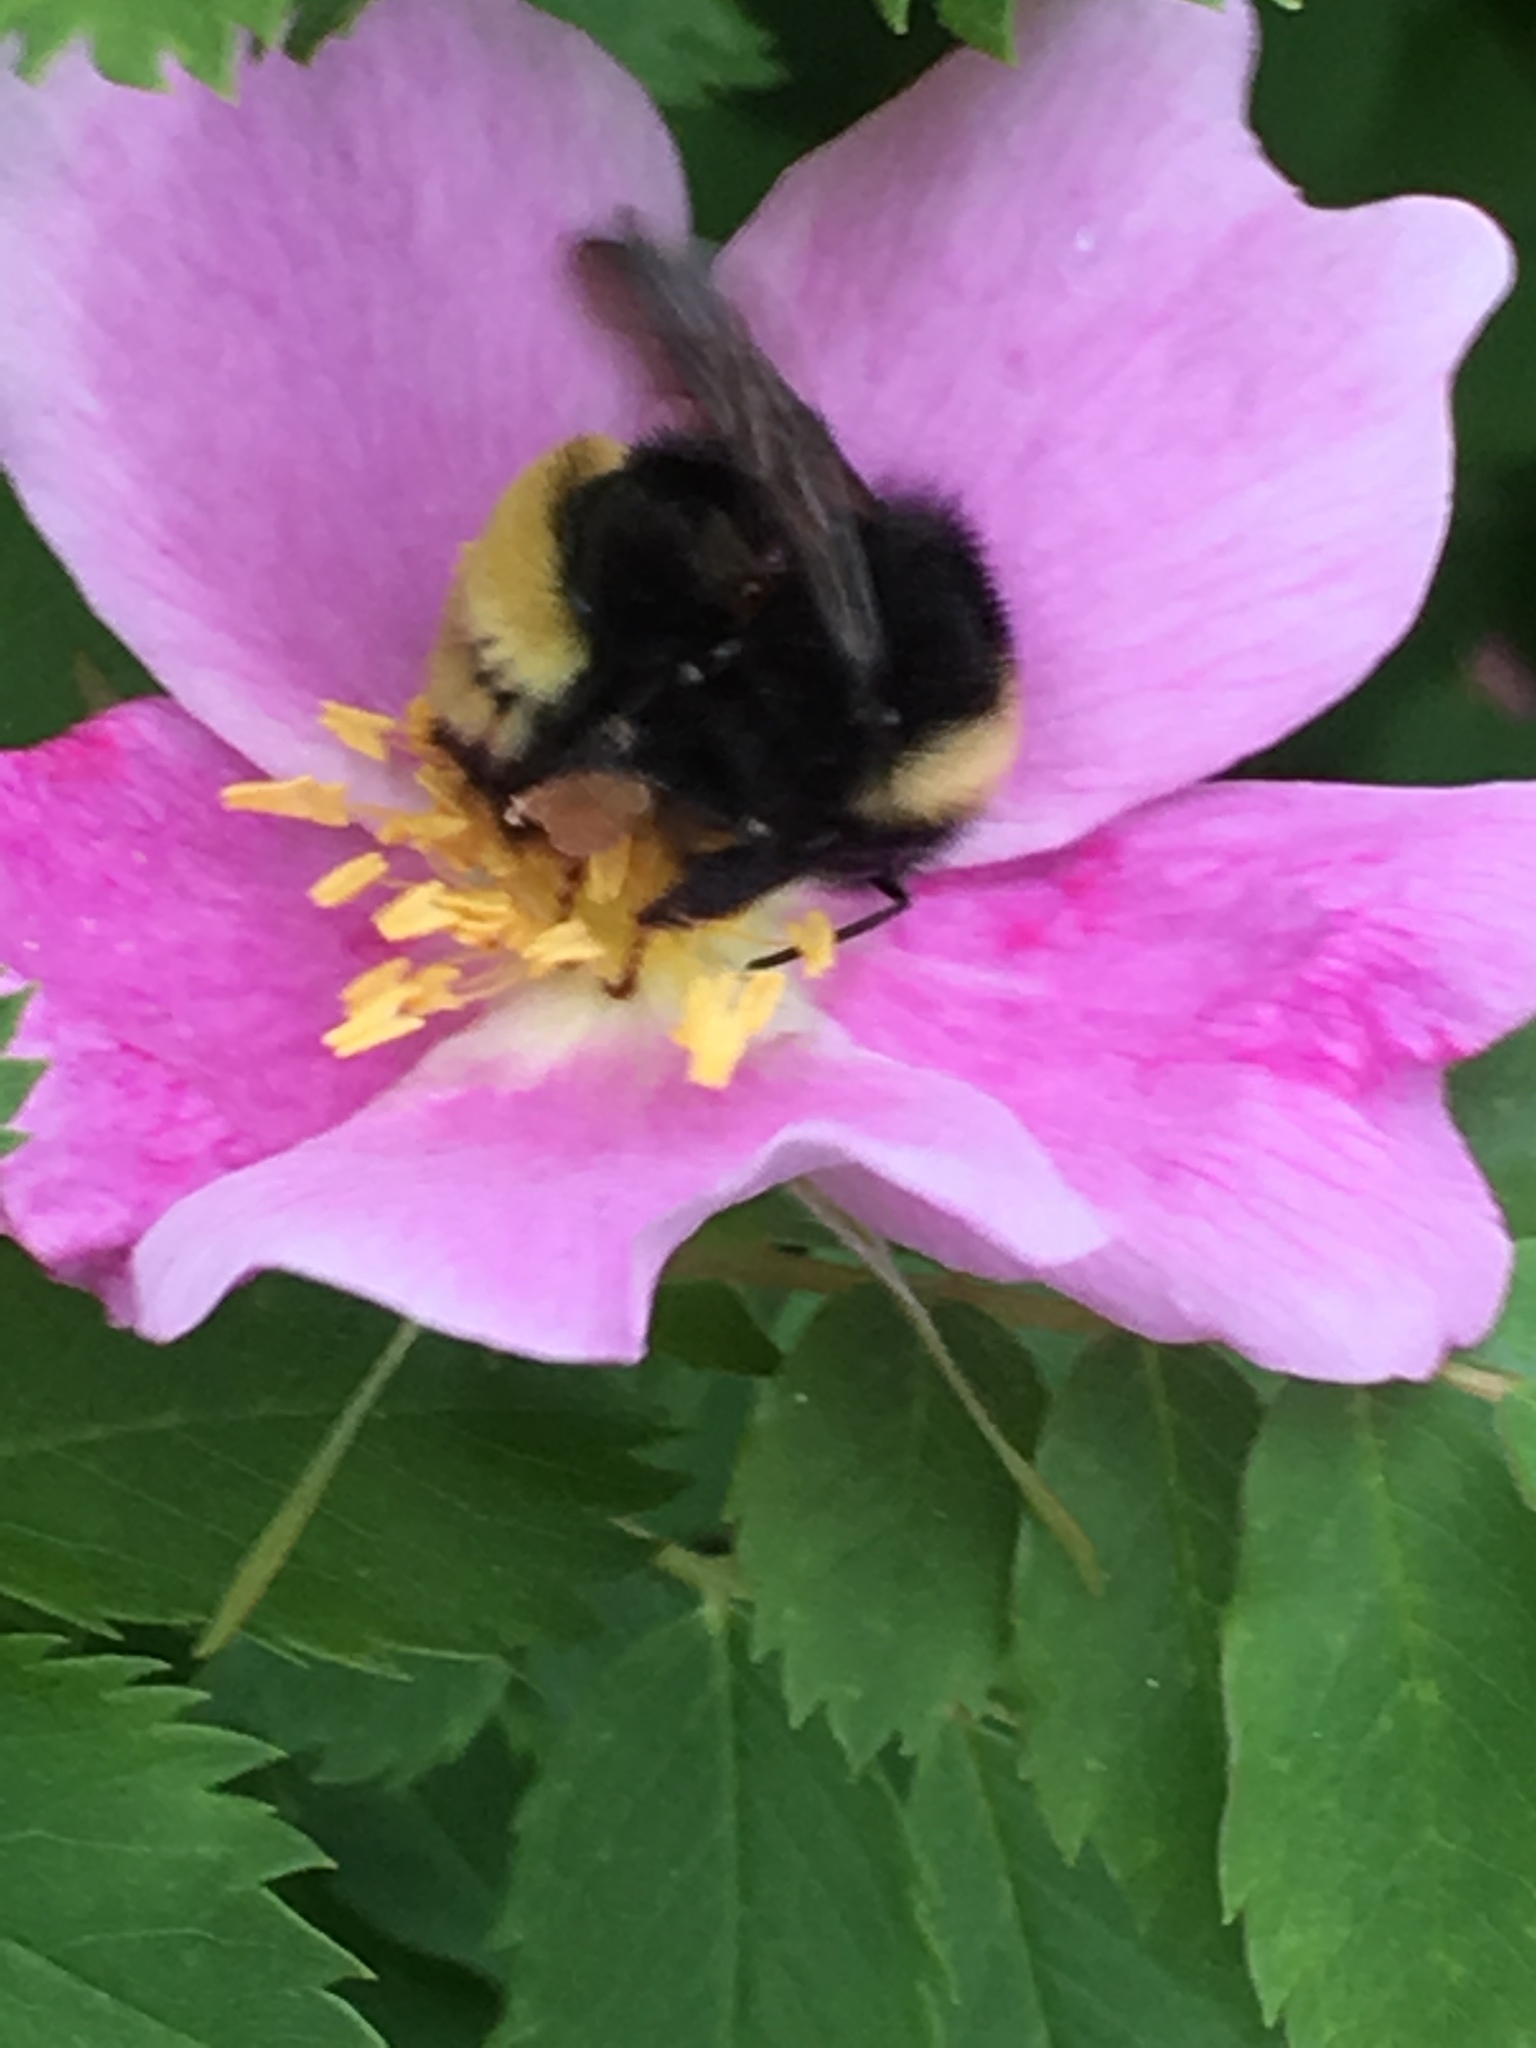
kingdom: Animalia
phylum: Arthropoda
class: Insecta
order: Hymenoptera
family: Apidae
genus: Bombus
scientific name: Bombus terricola
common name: Yellow-banded bumble bee
